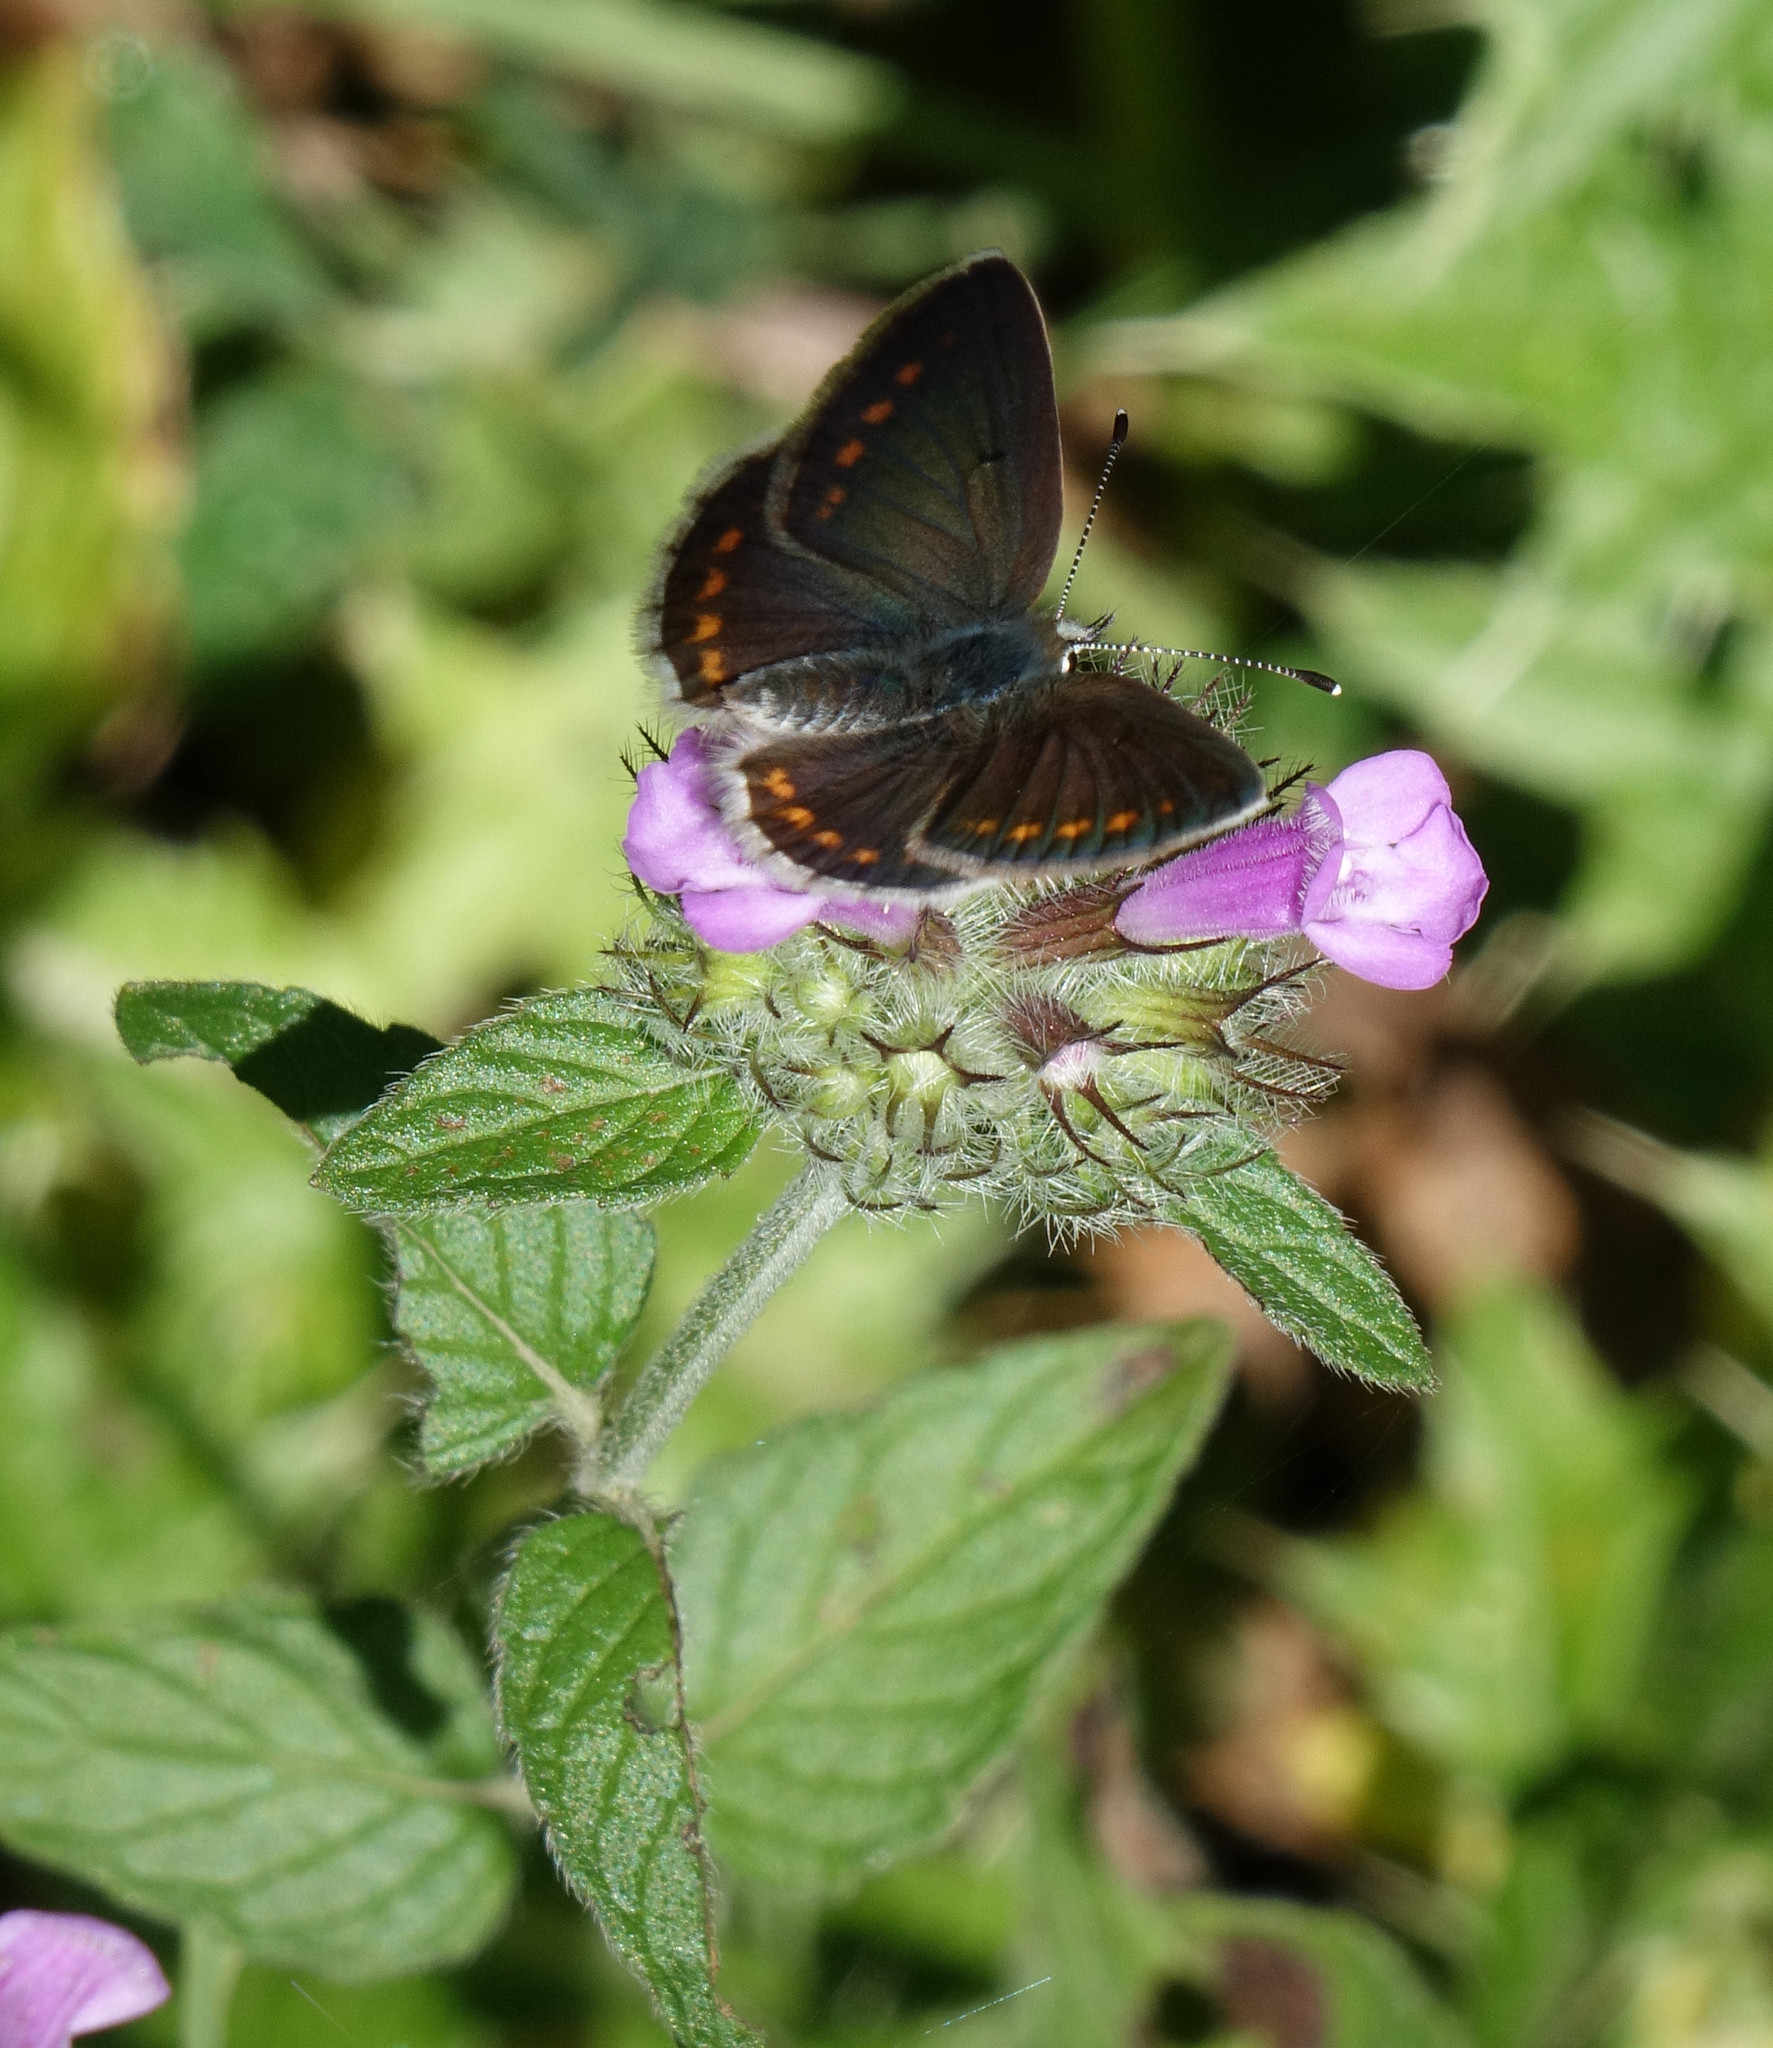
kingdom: Animalia
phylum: Arthropoda
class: Insecta
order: Lepidoptera
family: Lycaenidae
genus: Aricia
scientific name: Aricia artaxerxes
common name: Northern brown argus
